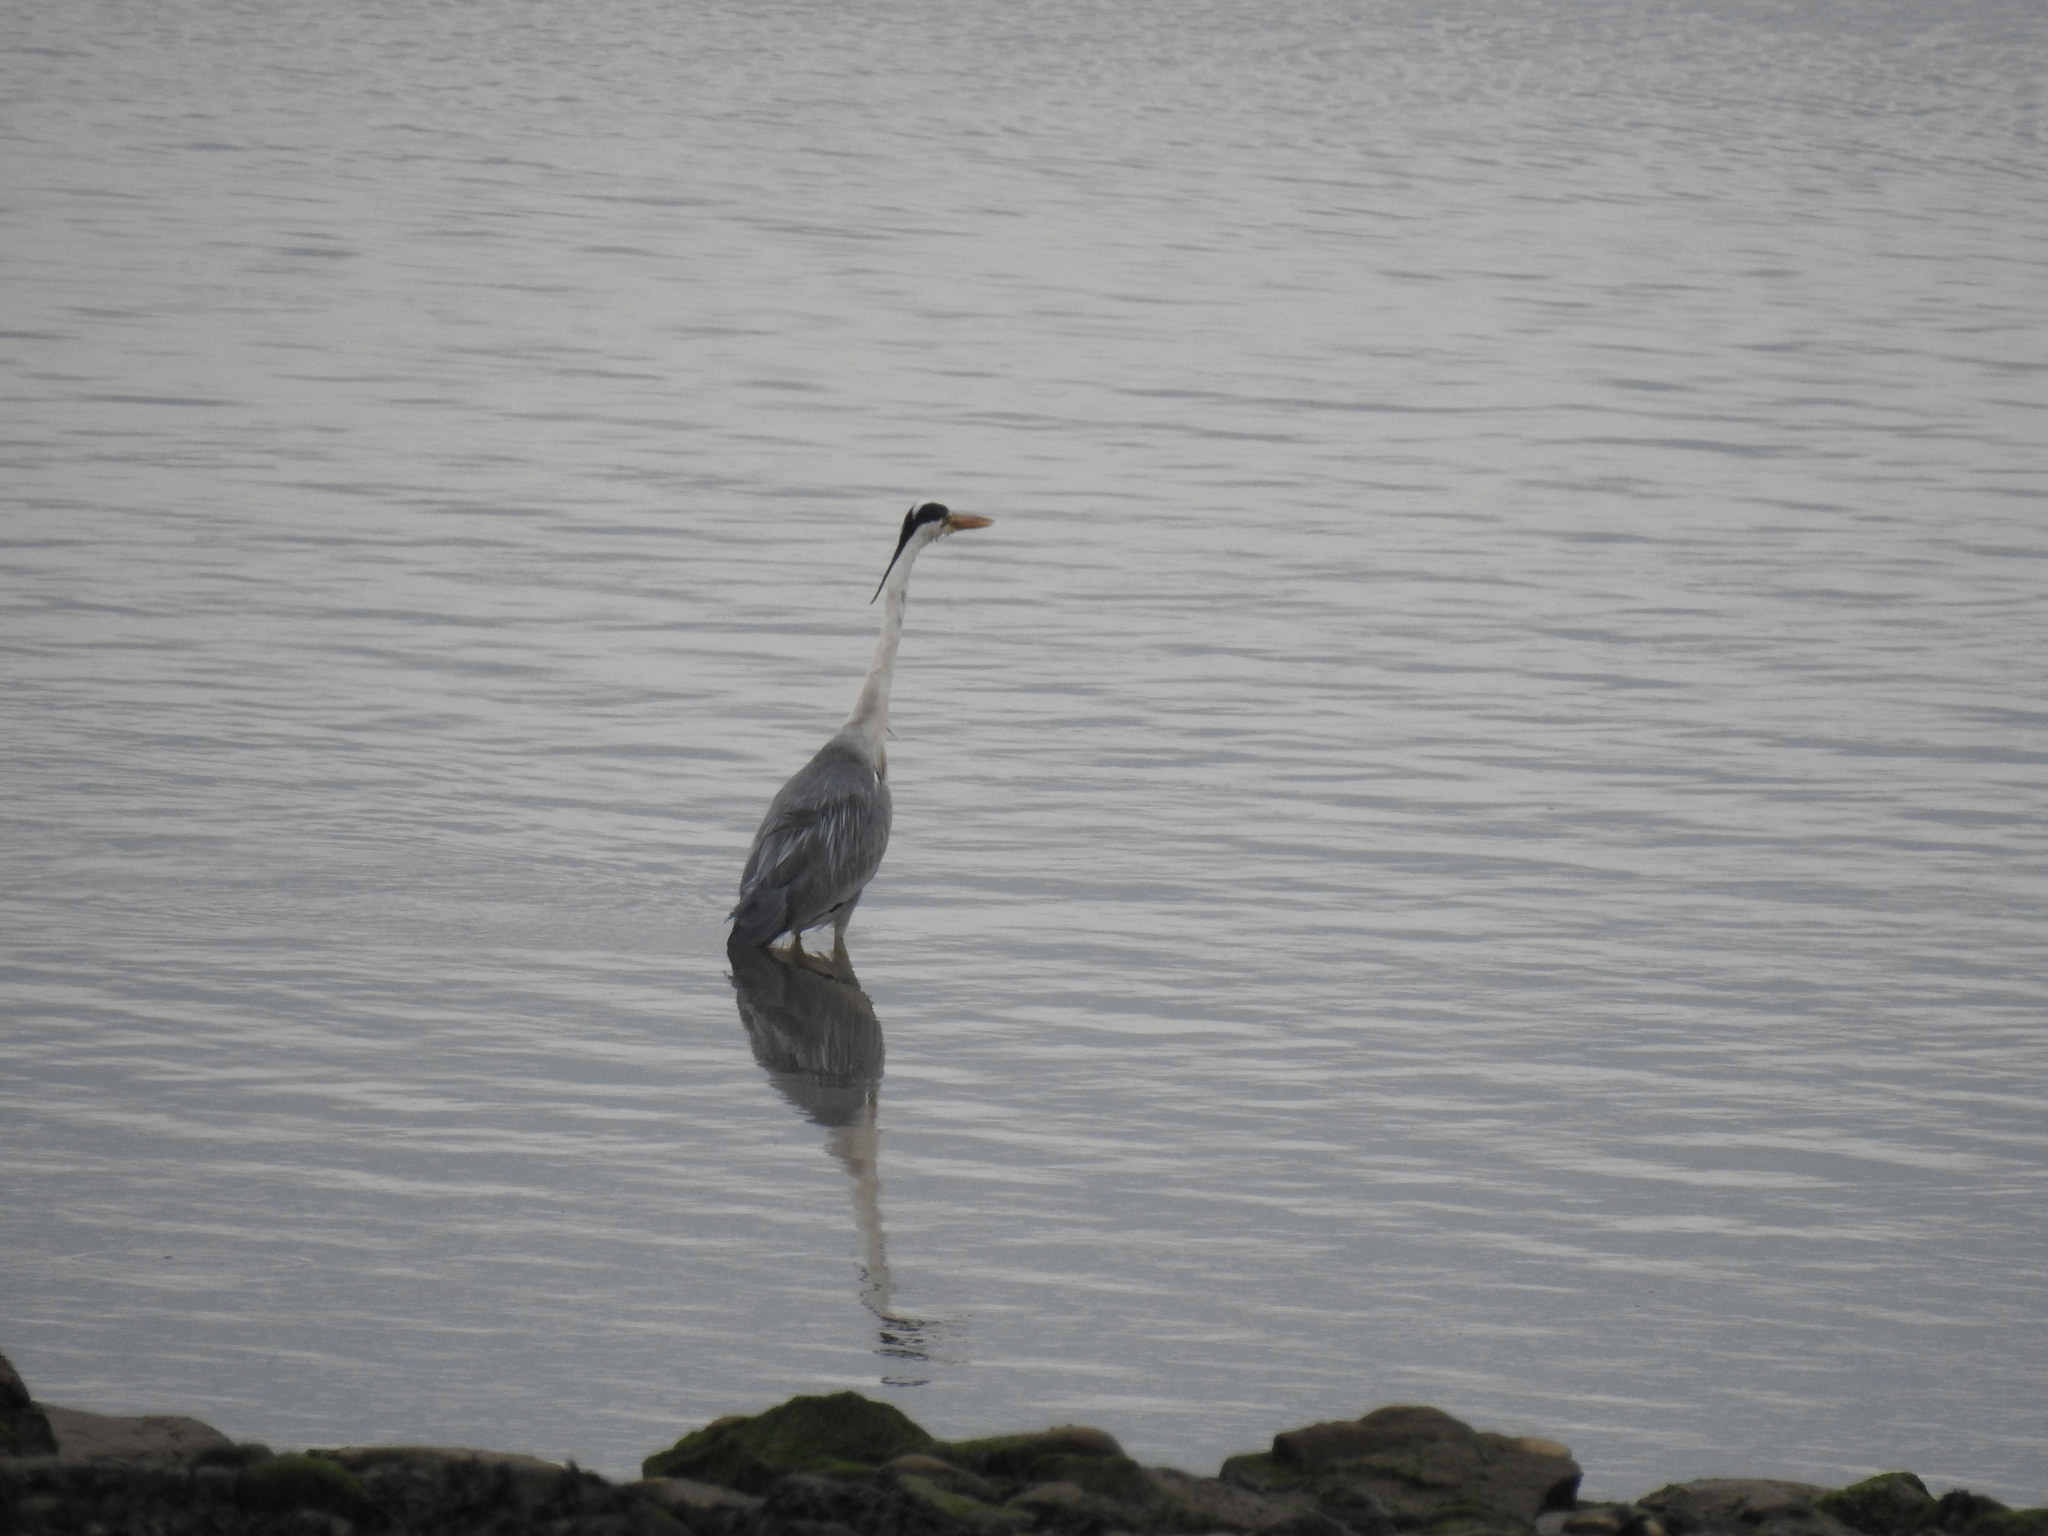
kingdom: Animalia
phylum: Chordata
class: Aves
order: Pelecaniformes
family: Ardeidae
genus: Ardea
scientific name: Ardea cinerea
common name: Grey heron
